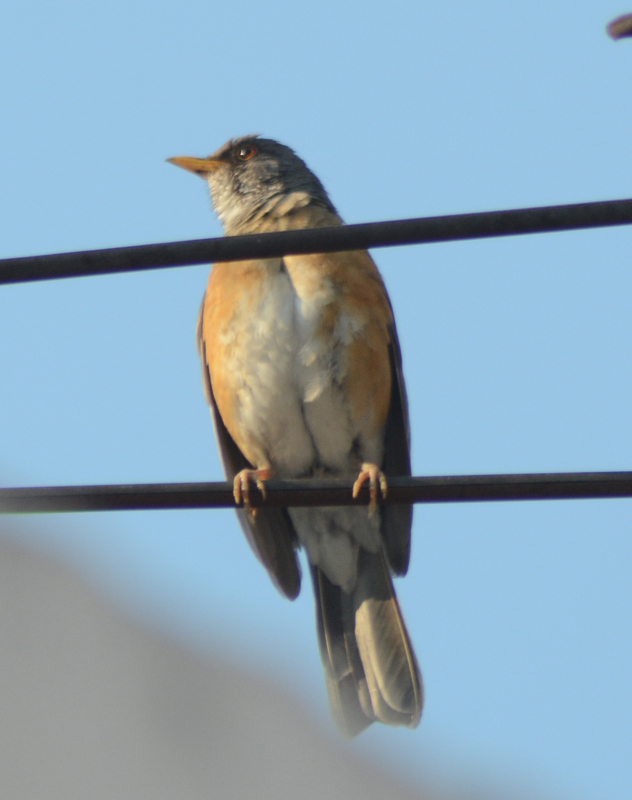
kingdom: Animalia
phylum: Chordata
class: Aves
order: Passeriformes
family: Turdidae
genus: Turdus
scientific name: Turdus rufopalliatus
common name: Rufous-backed robin
